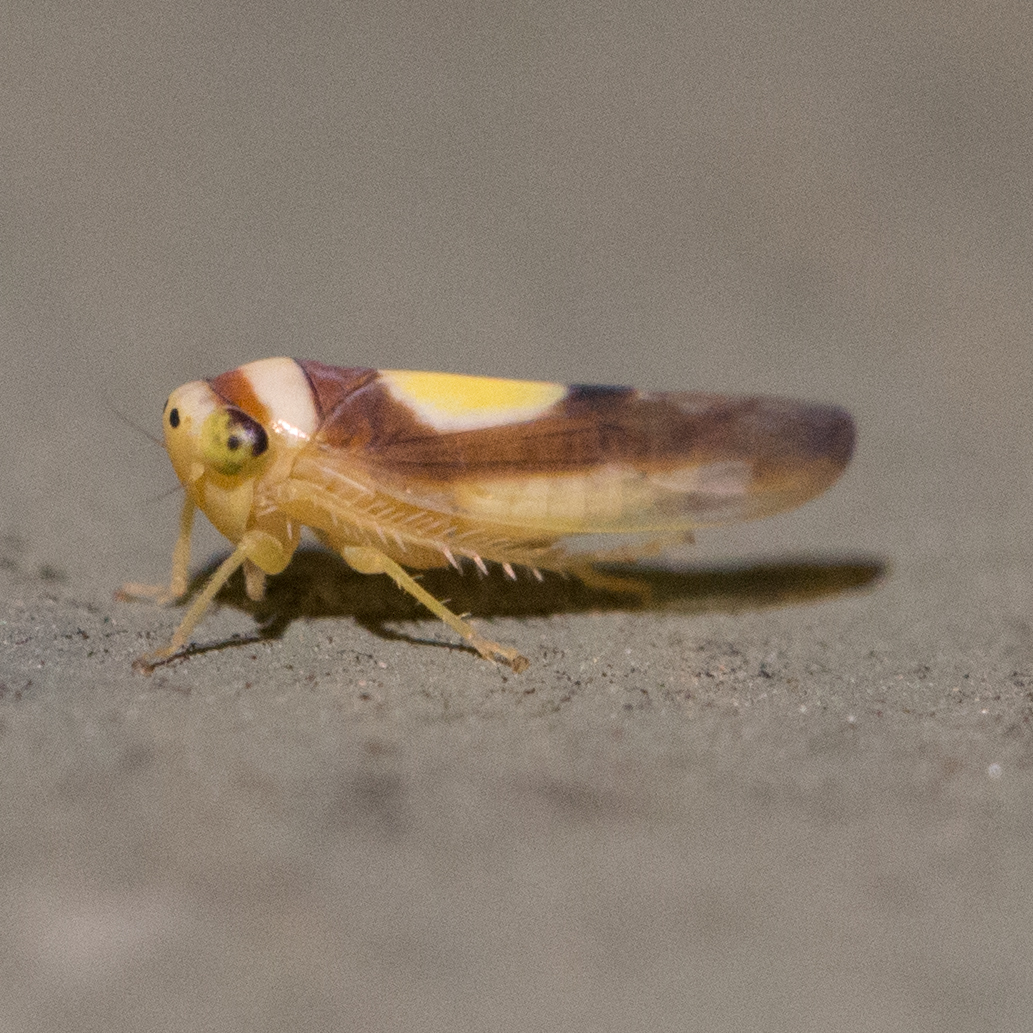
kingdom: Animalia
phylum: Arthropoda
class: Insecta
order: Hemiptera
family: Cicadellidae
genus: Colladonus
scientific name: Colladonus clitellarius
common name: The saddleback leafhopper
